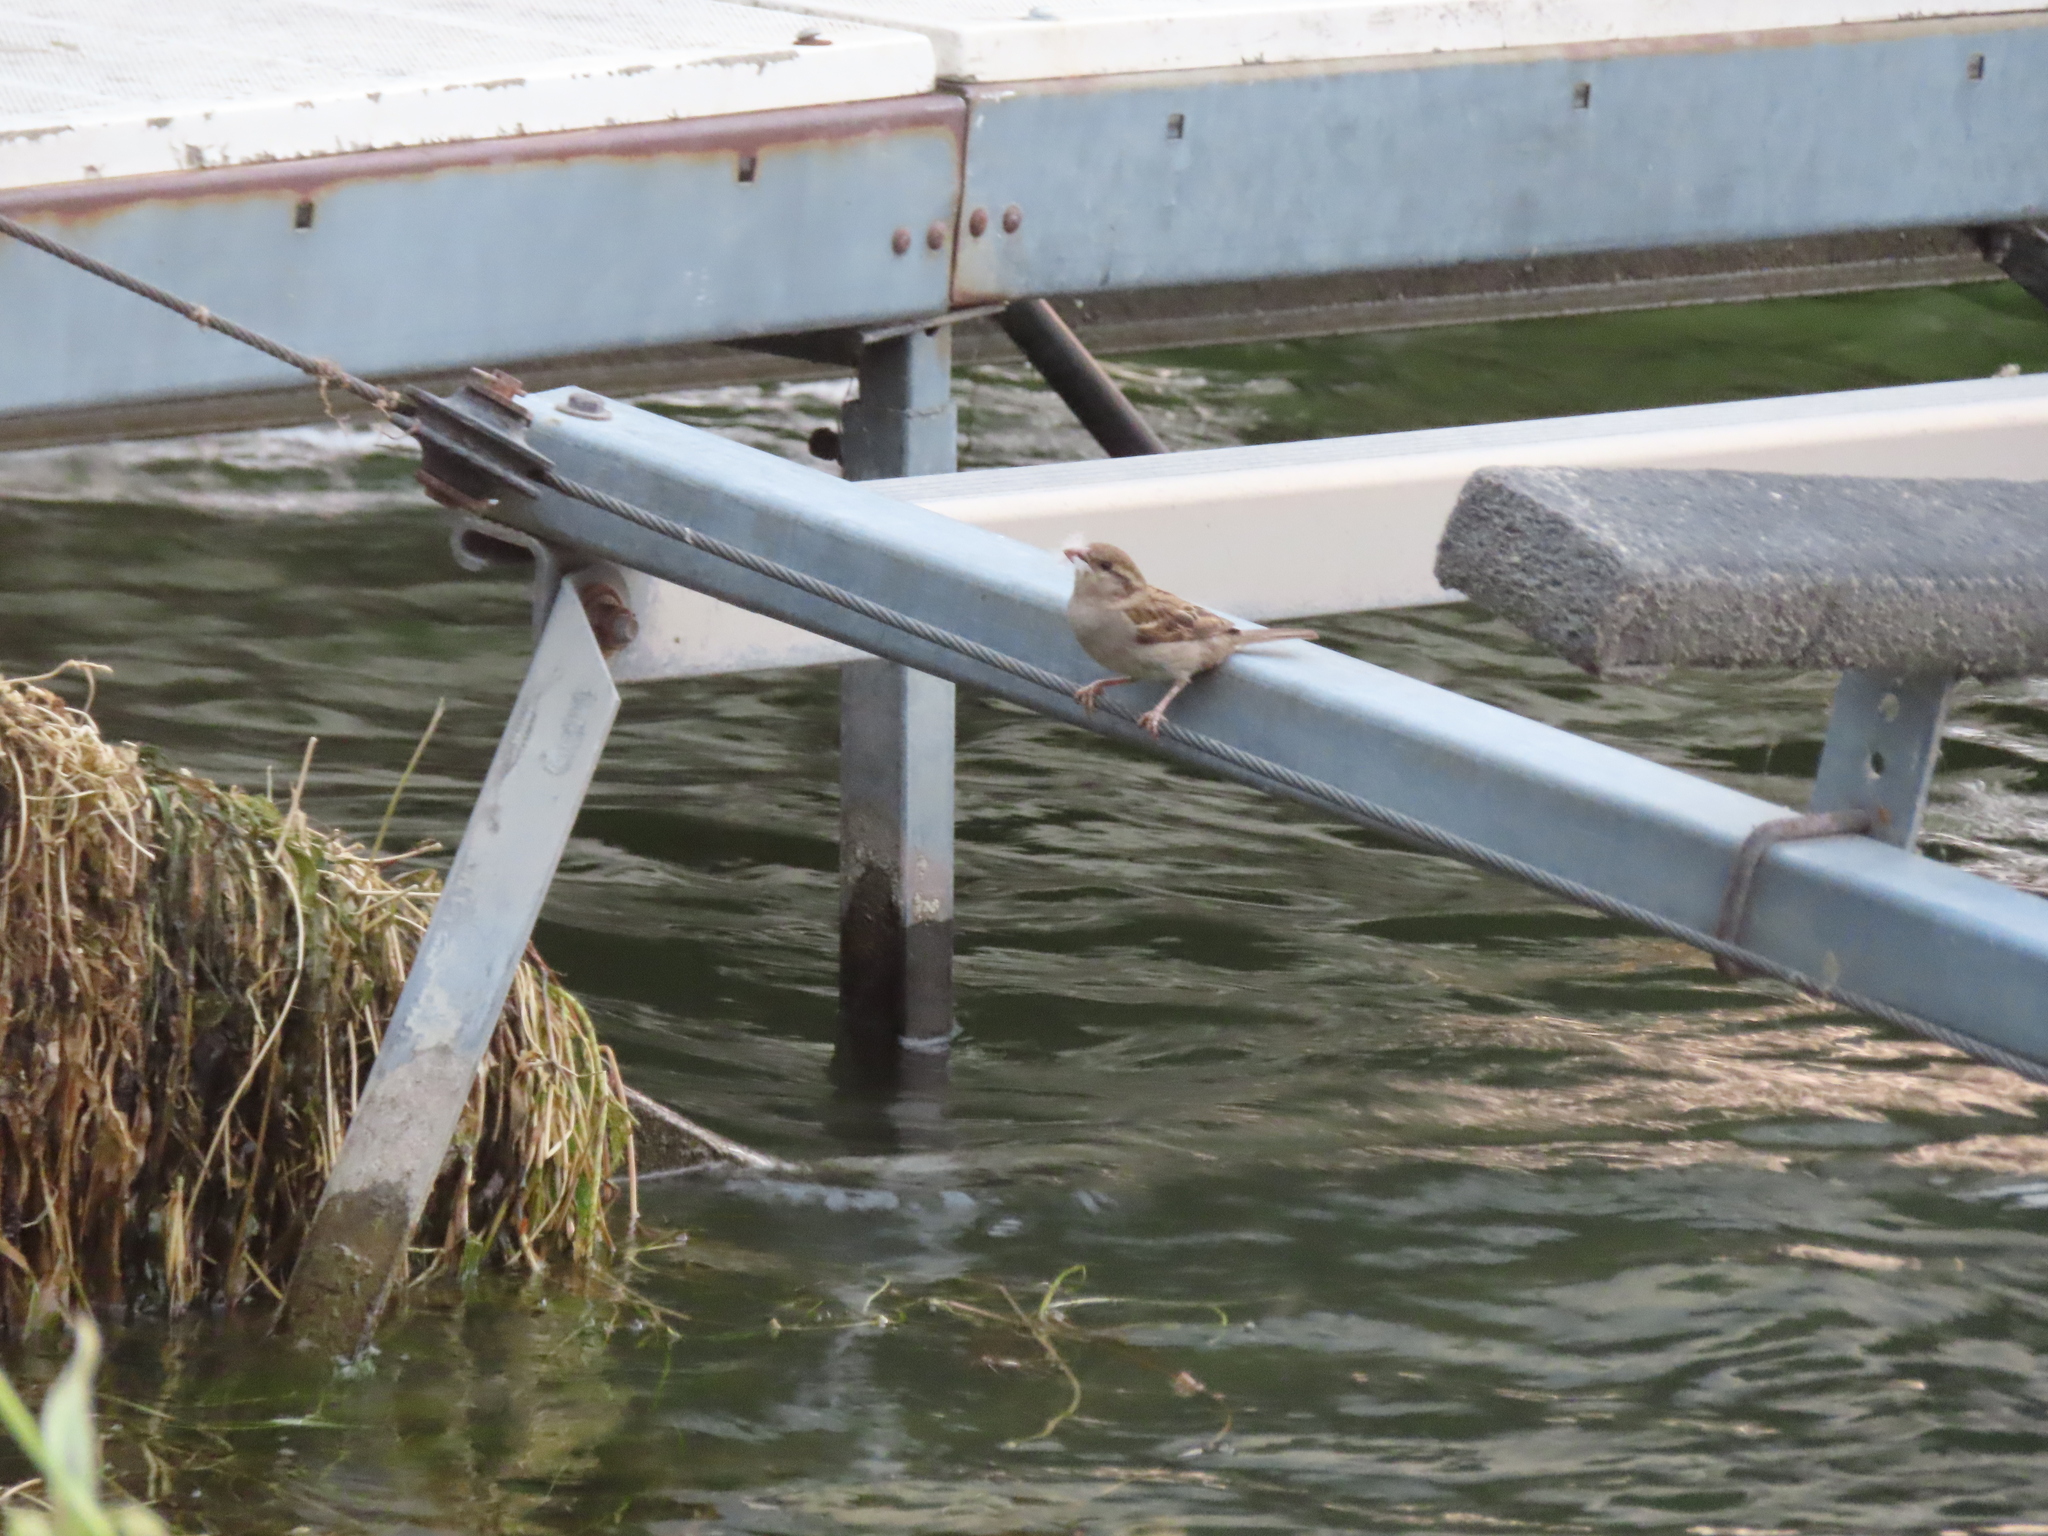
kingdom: Animalia
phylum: Chordata
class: Aves
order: Passeriformes
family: Passeridae
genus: Passer
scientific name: Passer domesticus
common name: House sparrow
